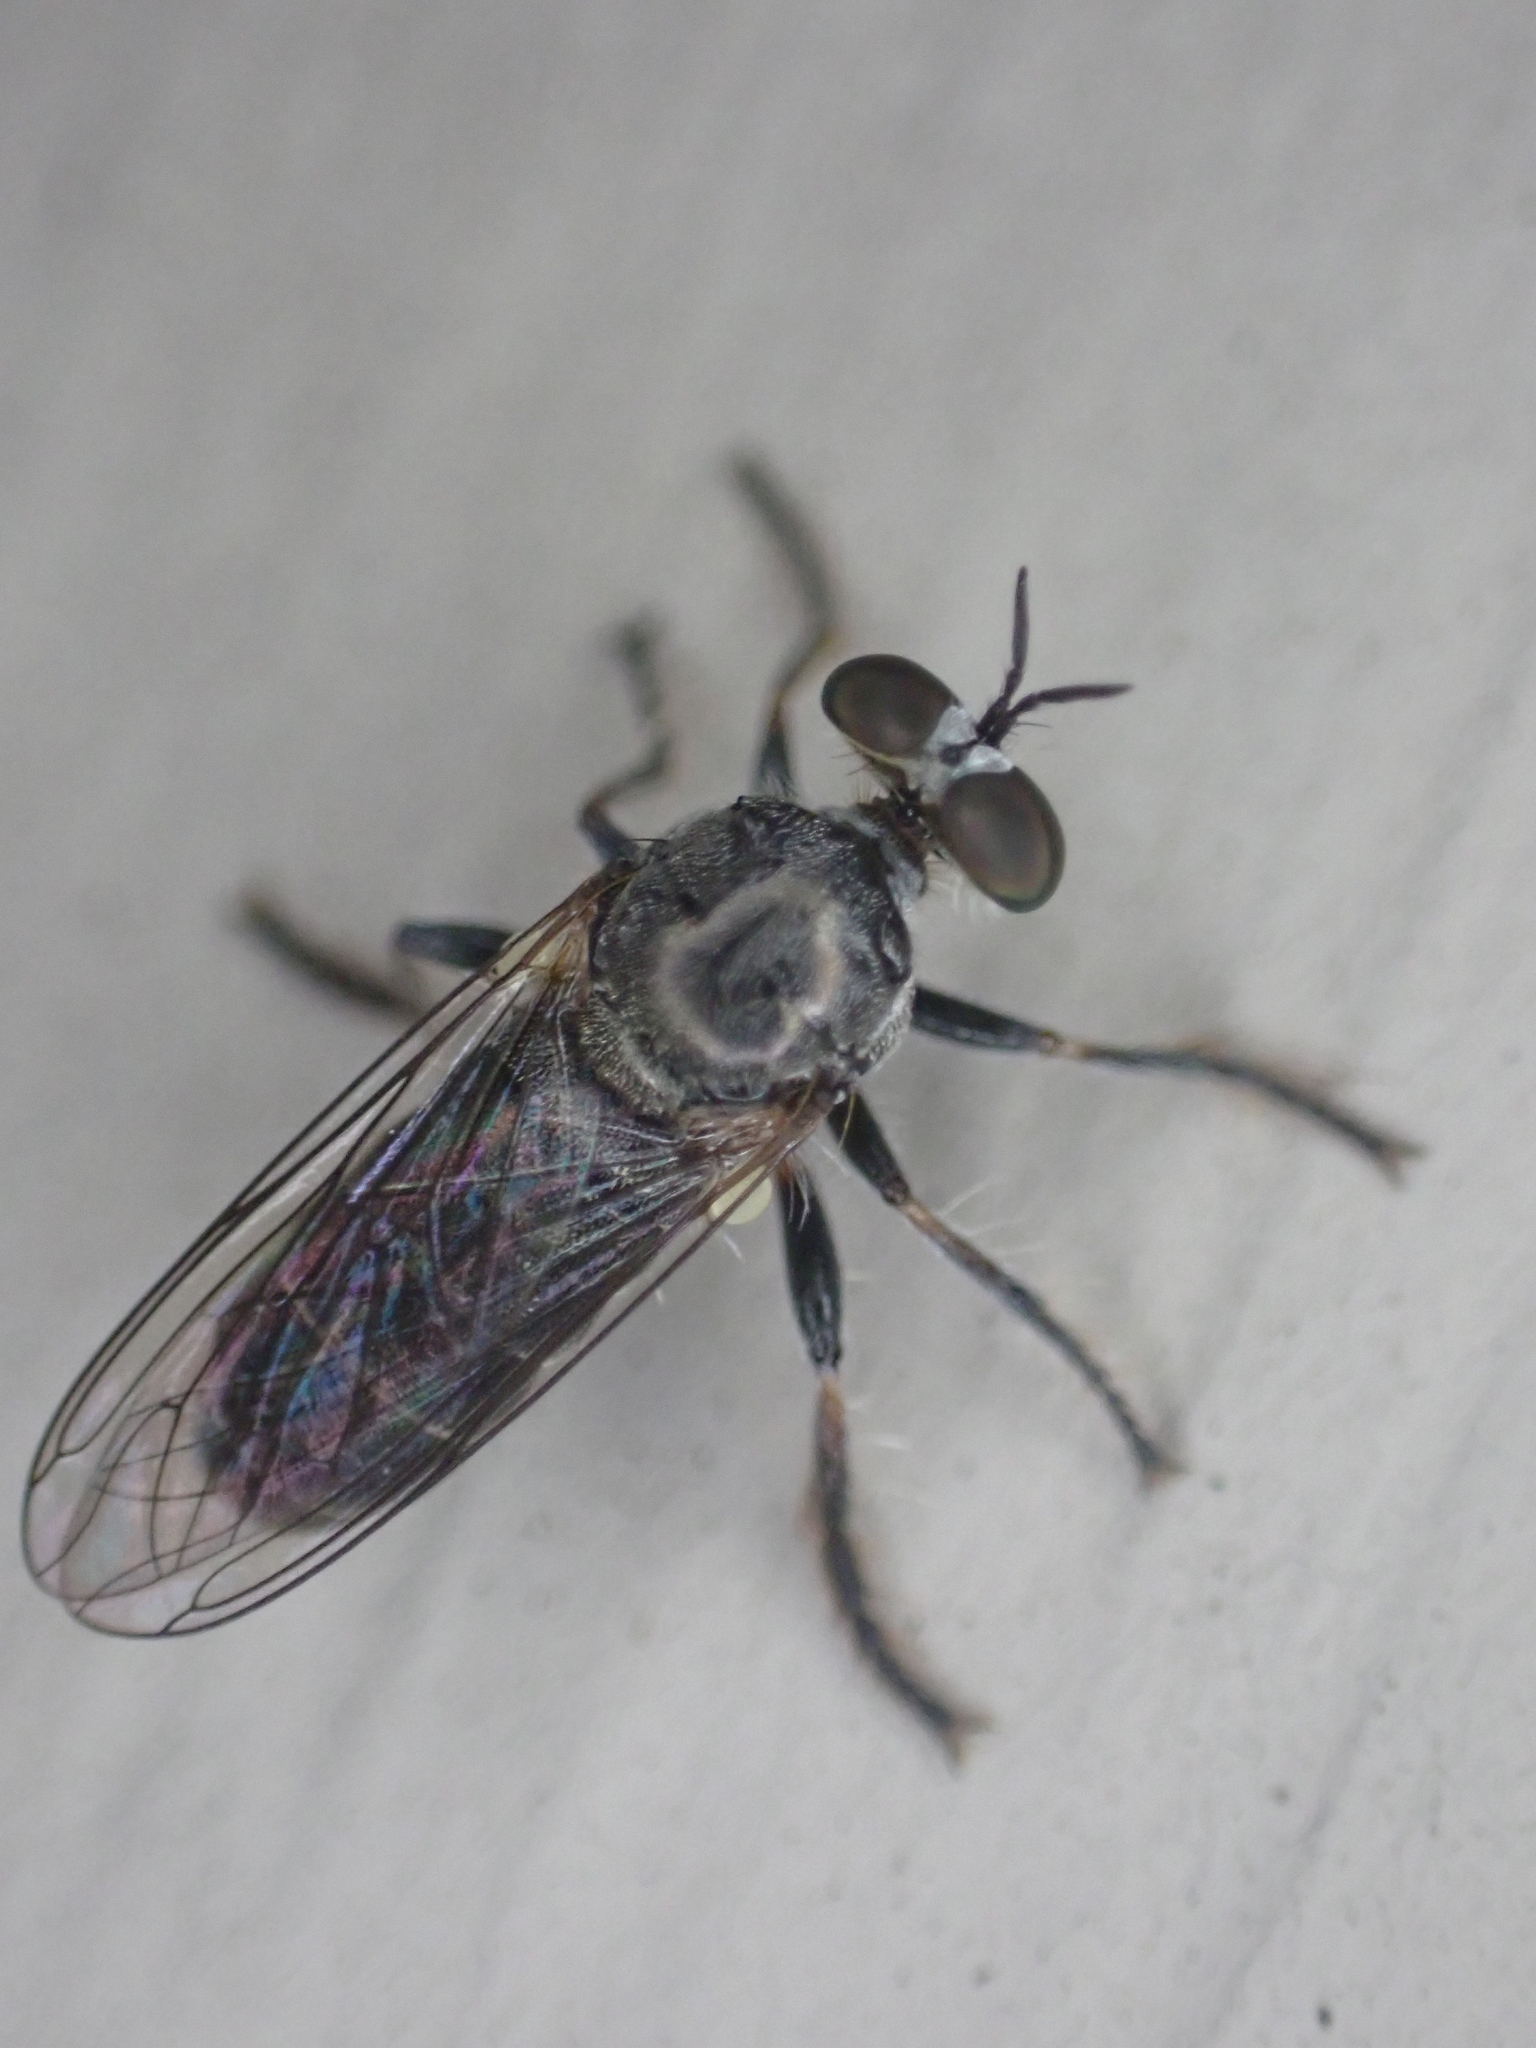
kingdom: Animalia
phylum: Arthropoda
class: Insecta
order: Diptera
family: Asilidae
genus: Atomosia
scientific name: Atomosia puella
